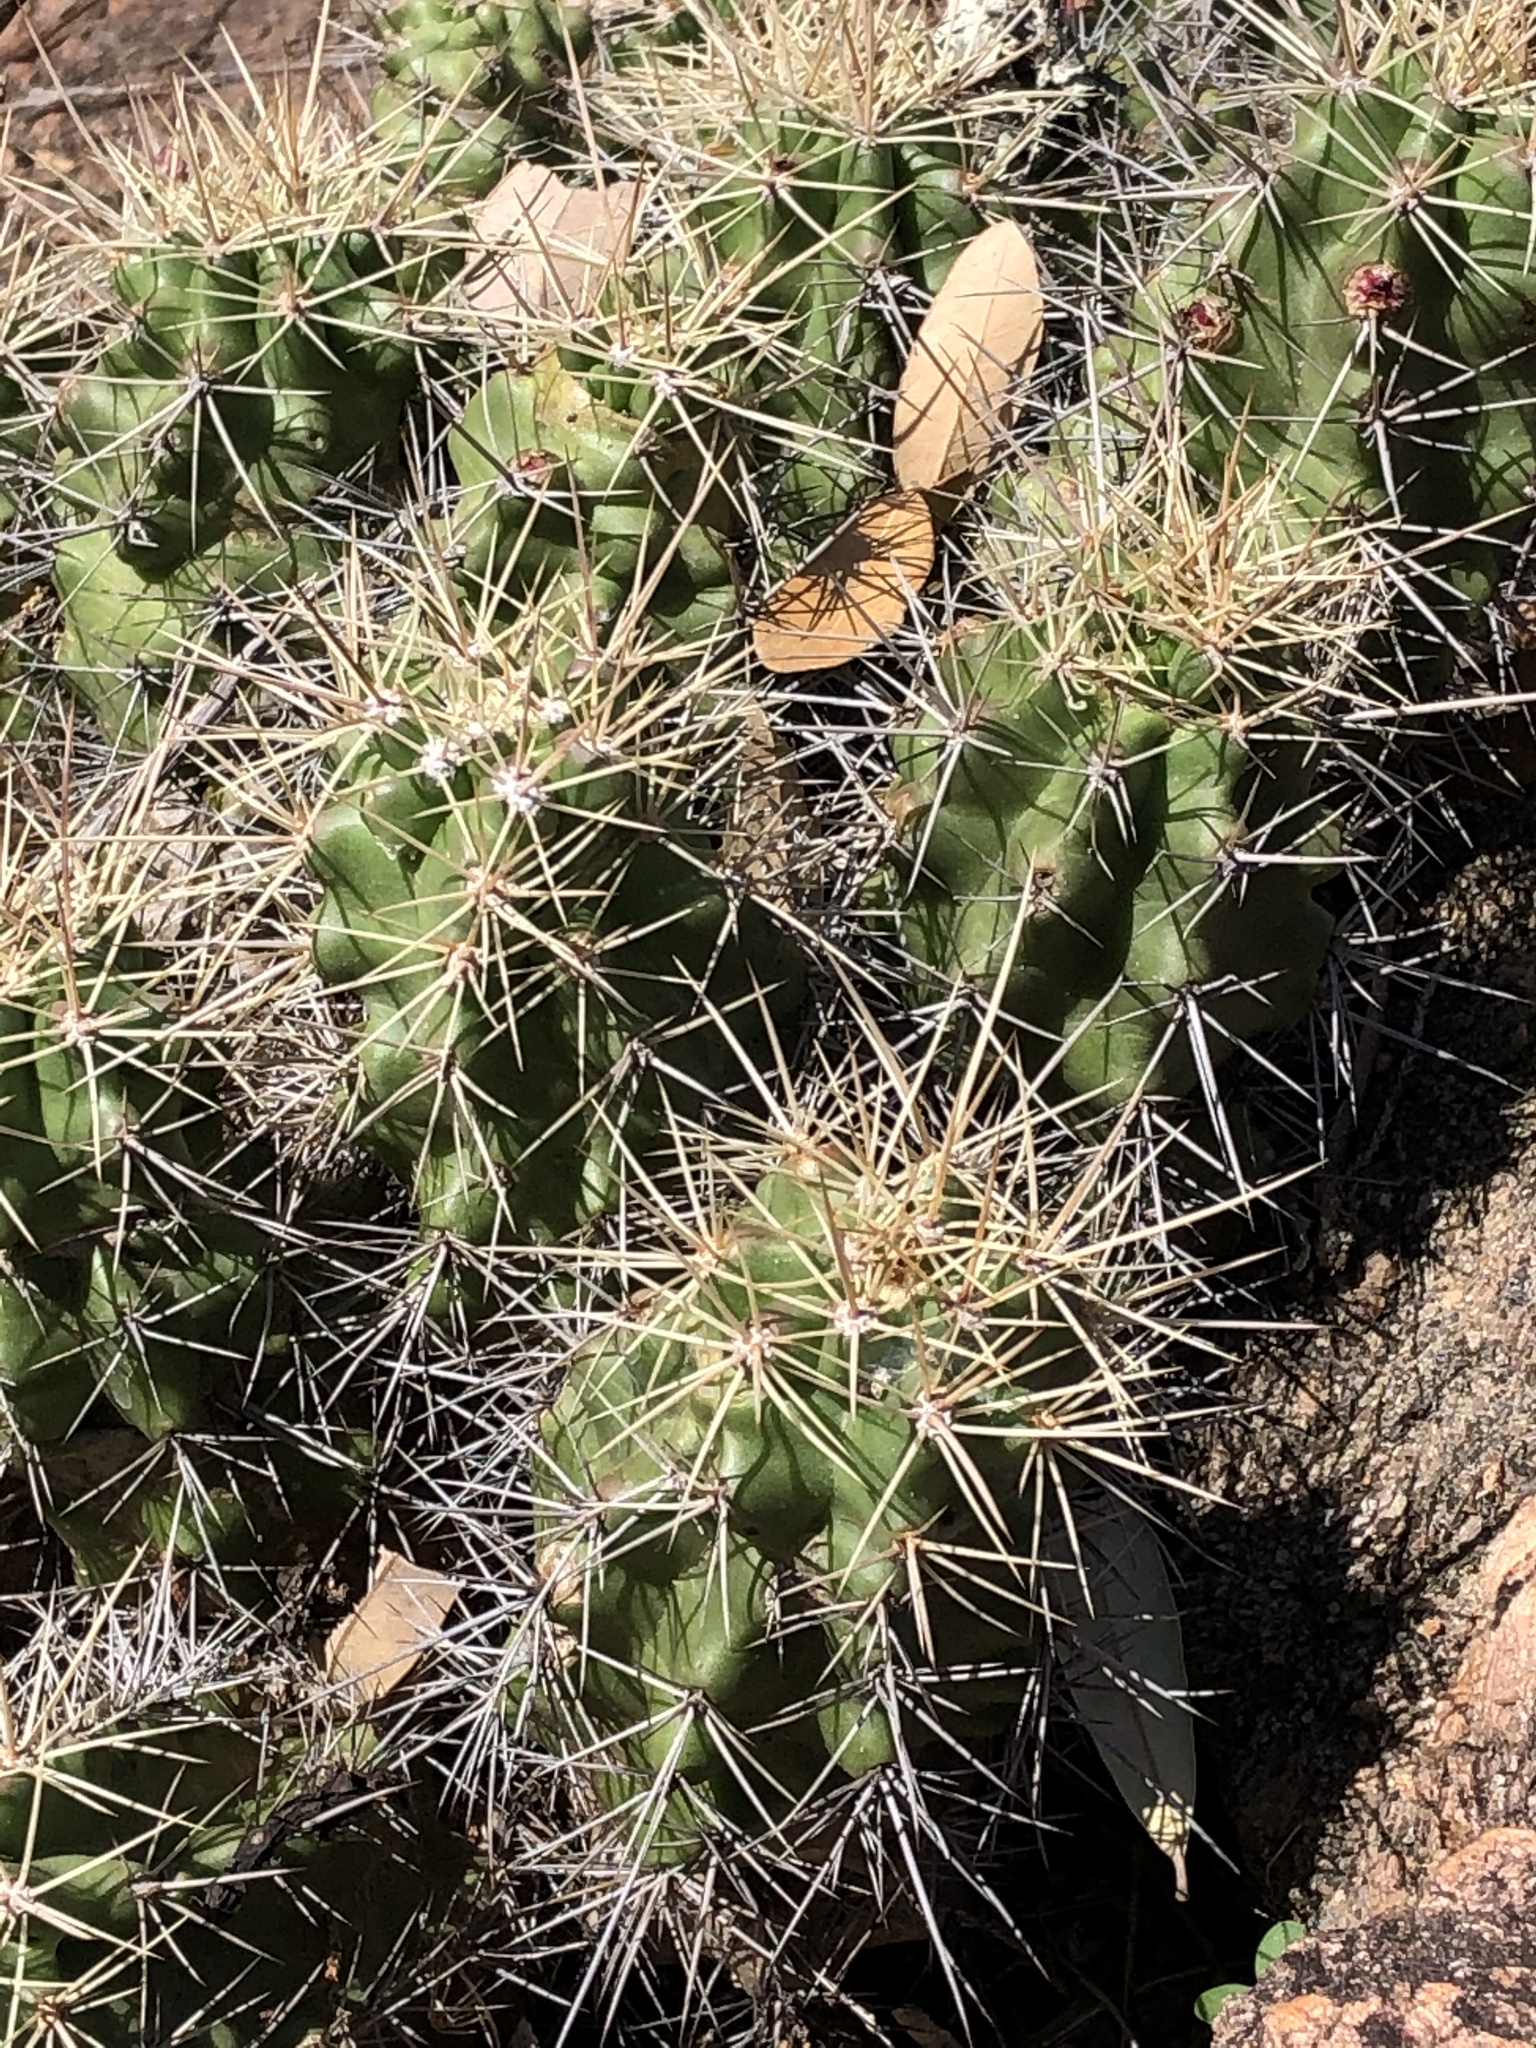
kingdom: Plantae
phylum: Tracheophyta
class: Magnoliopsida
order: Caryophyllales
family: Cactaceae
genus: Echinocereus
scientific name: Echinocereus coccineus
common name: Scarlet hedgehog cactus
